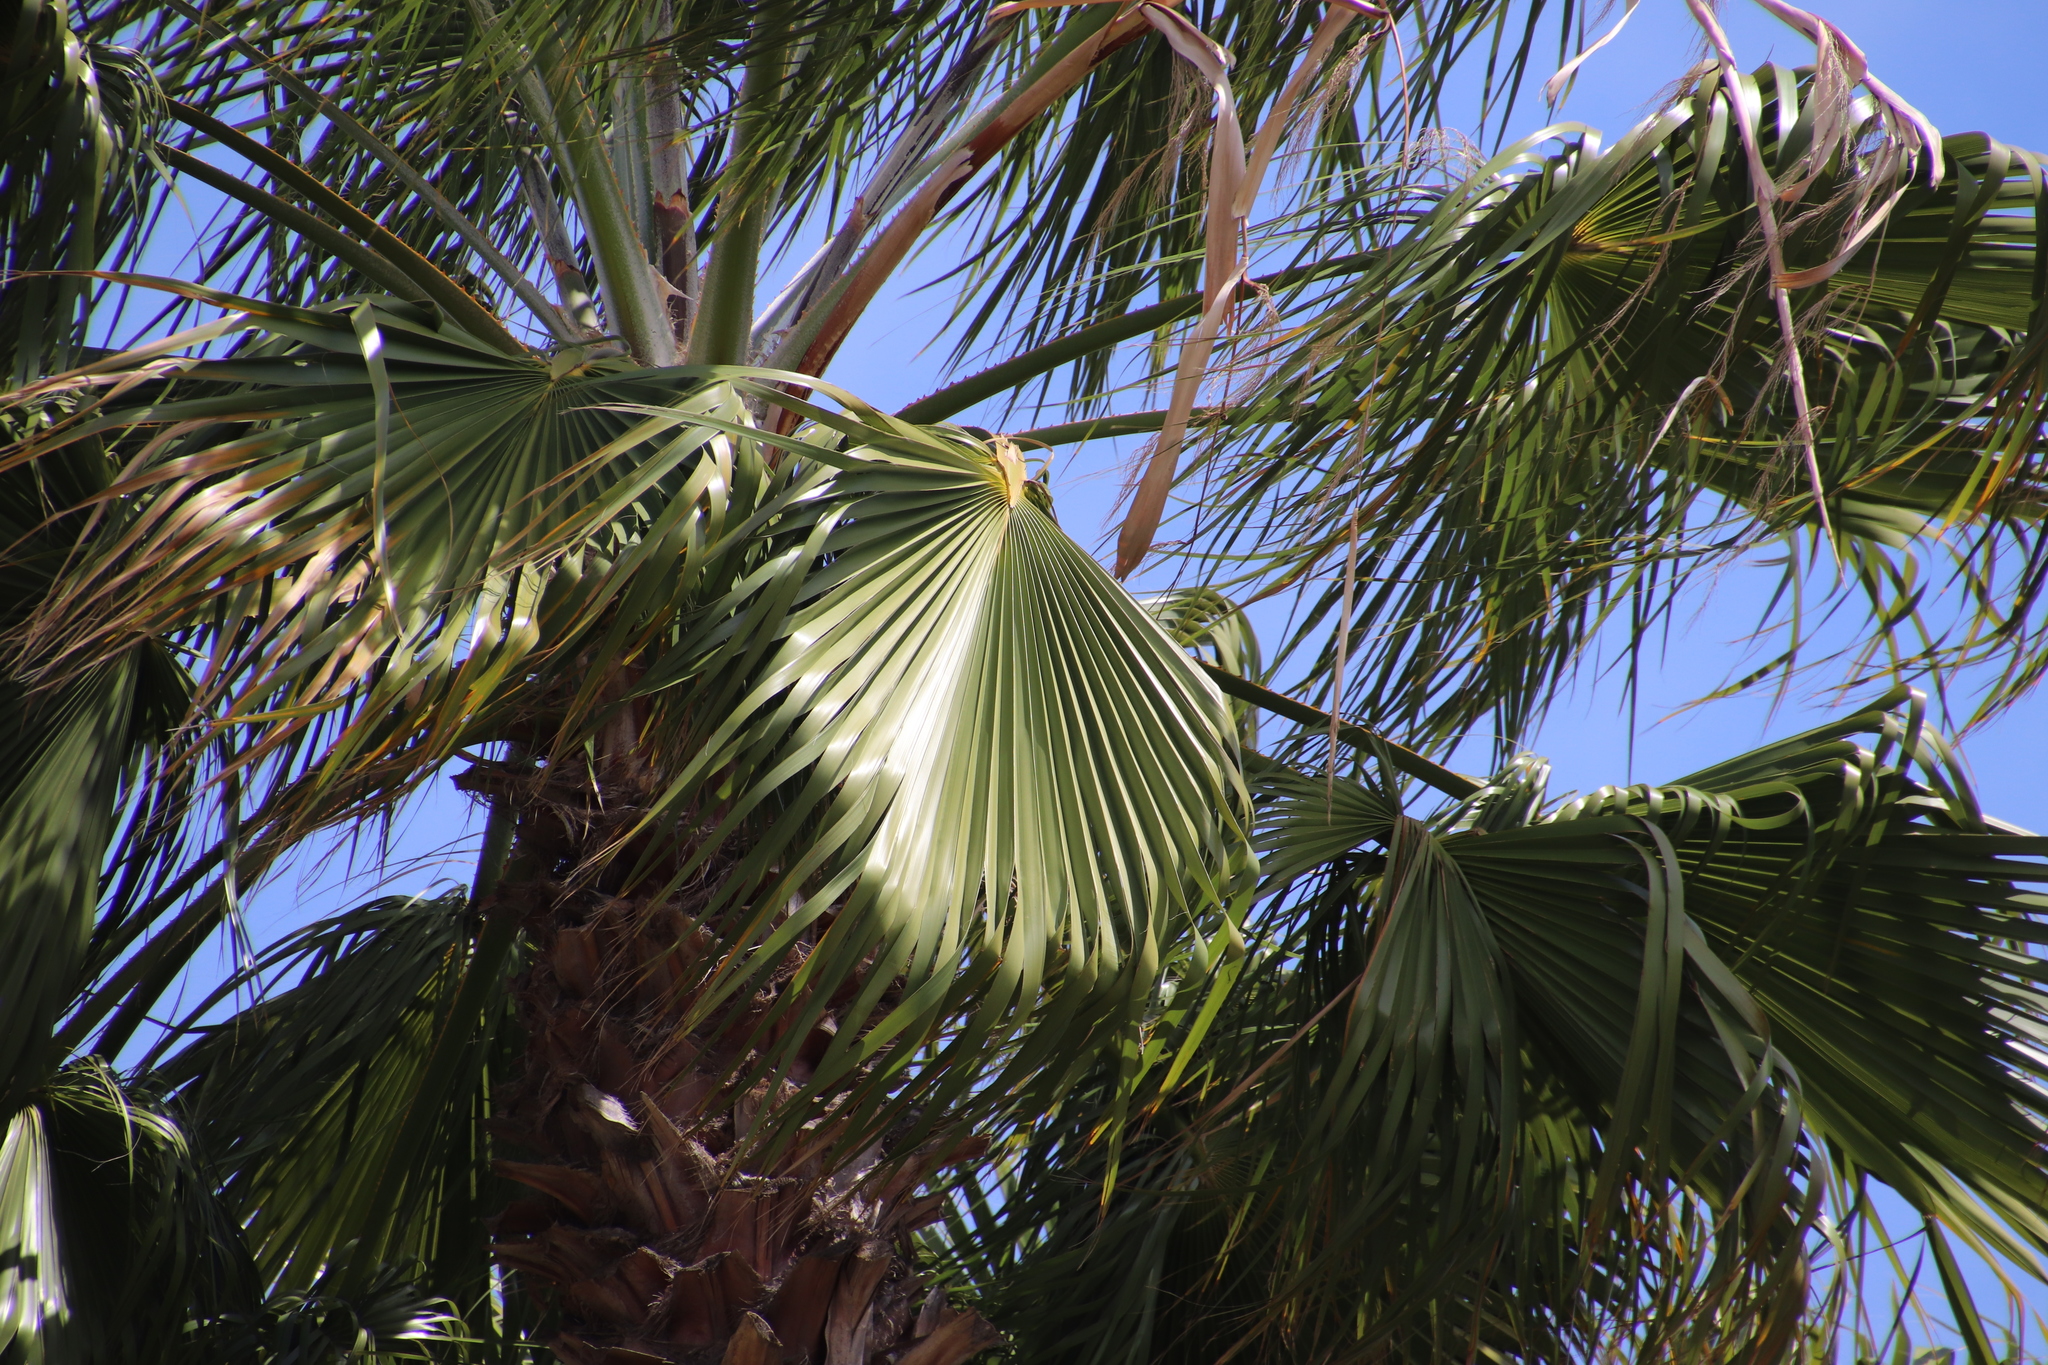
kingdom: Plantae
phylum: Tracheophyta
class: Liliopsida
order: Arecales
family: Arecaceae
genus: Washingtonia
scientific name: Washingtonia robusta
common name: Mexican fan palm
